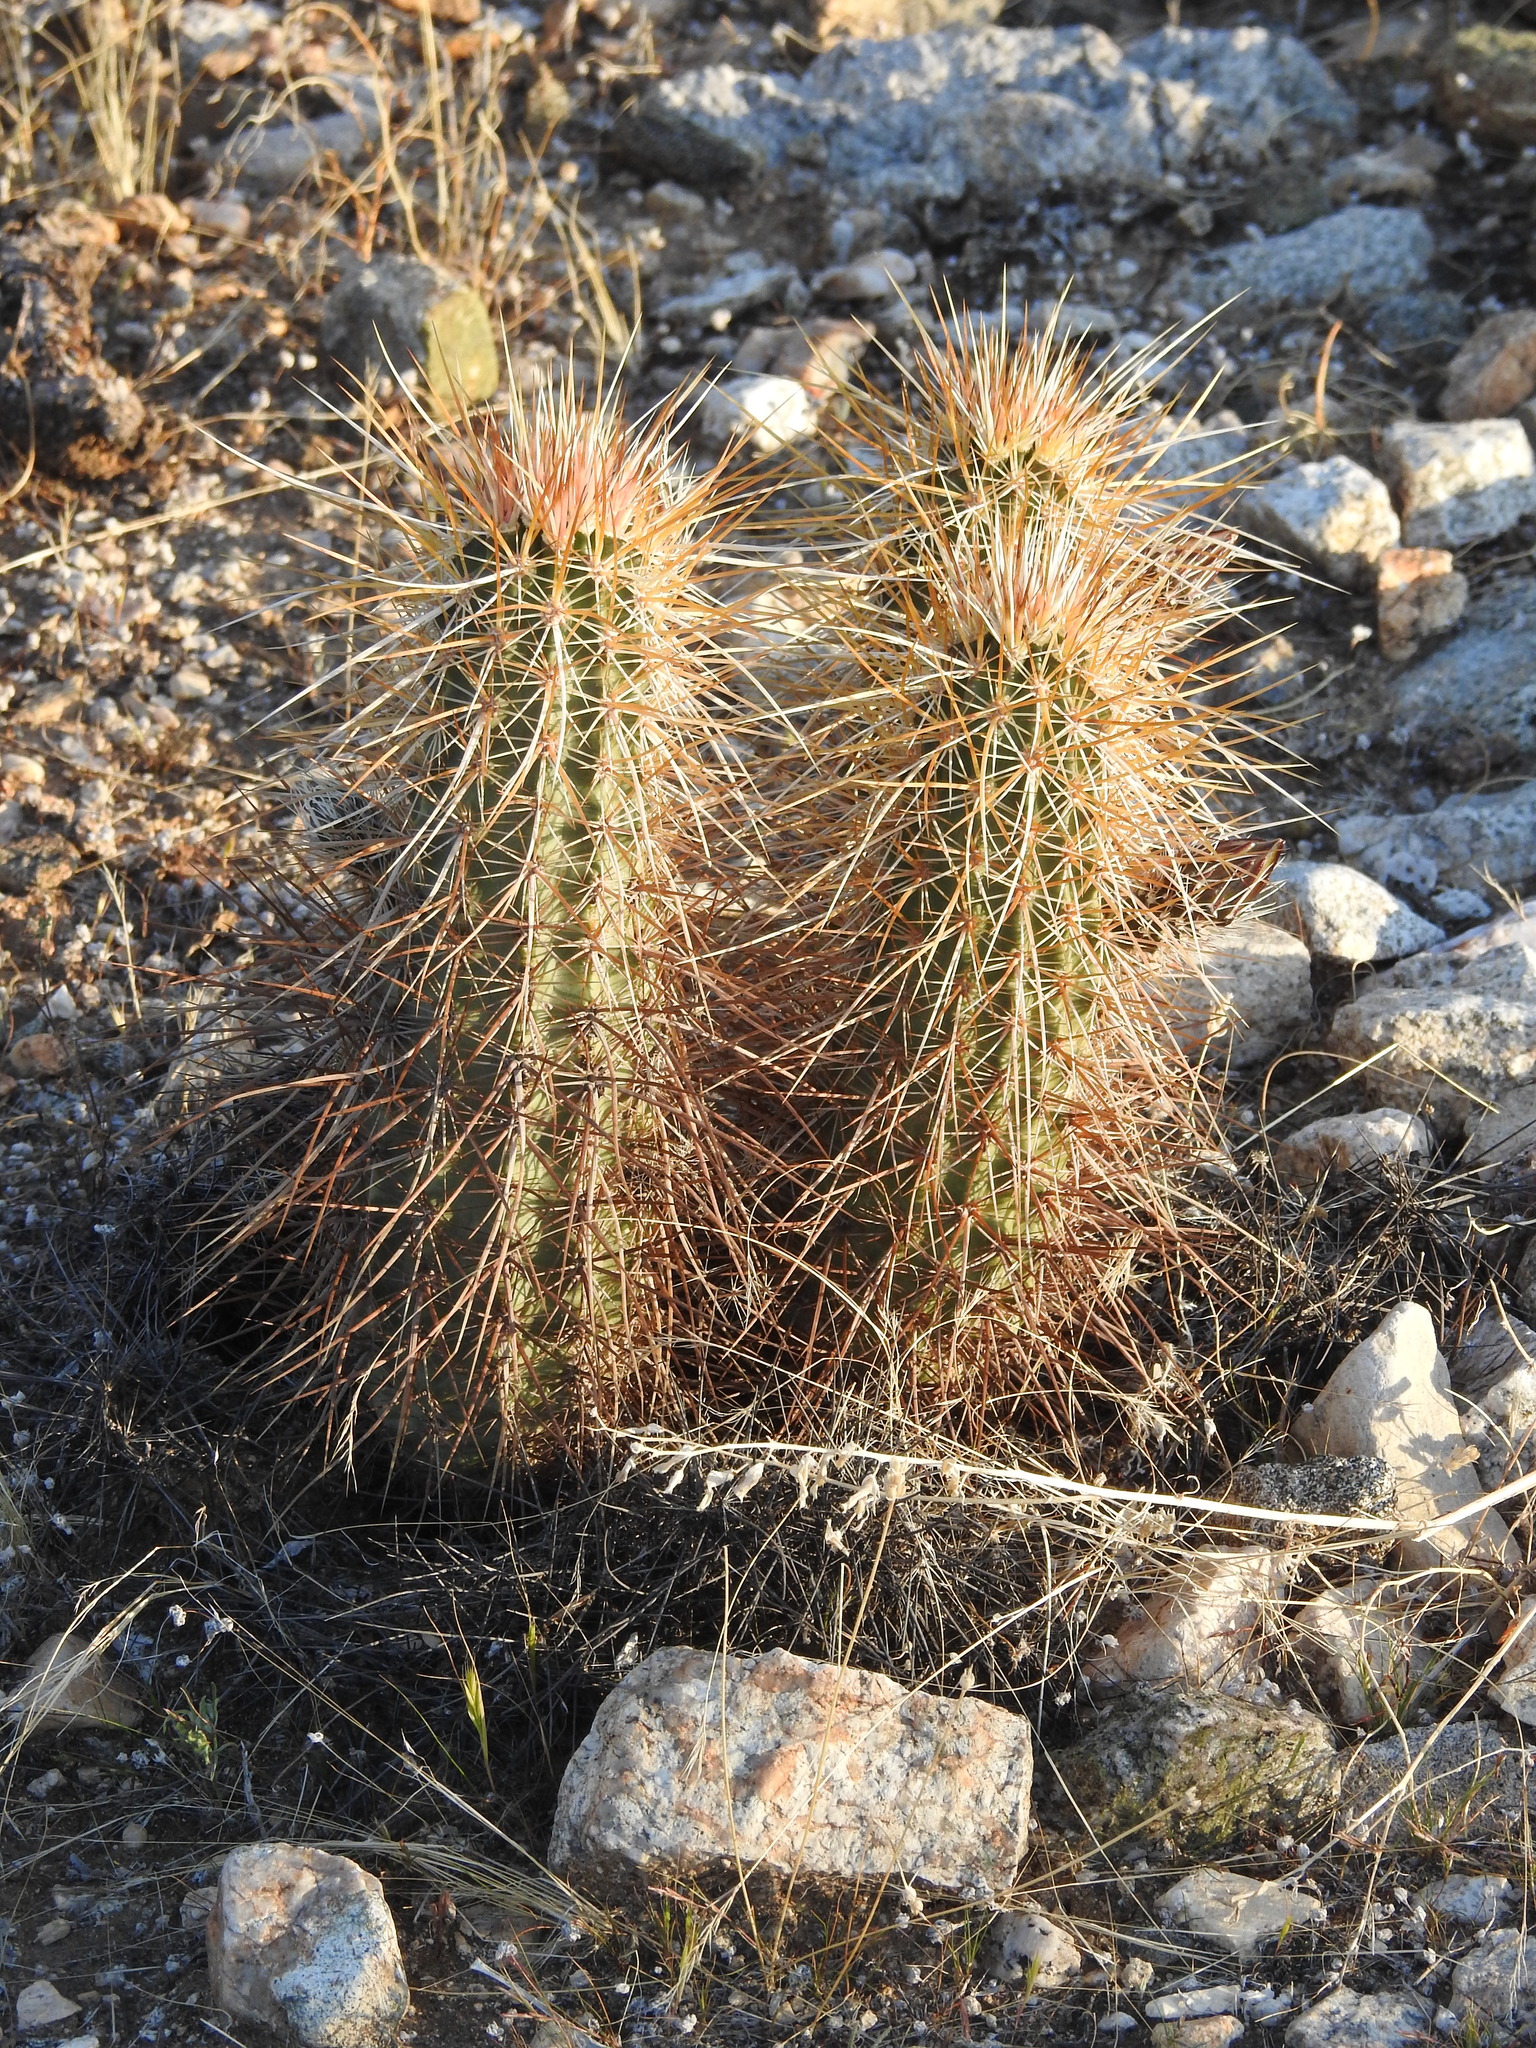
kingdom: Plantae
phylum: Tracheophyta
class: Magnoliopsida
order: Caryophyllales
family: Cactaceae
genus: Echinocereus
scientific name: Echinocereus engelmannii
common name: Engelmann's hedgehog cactus
